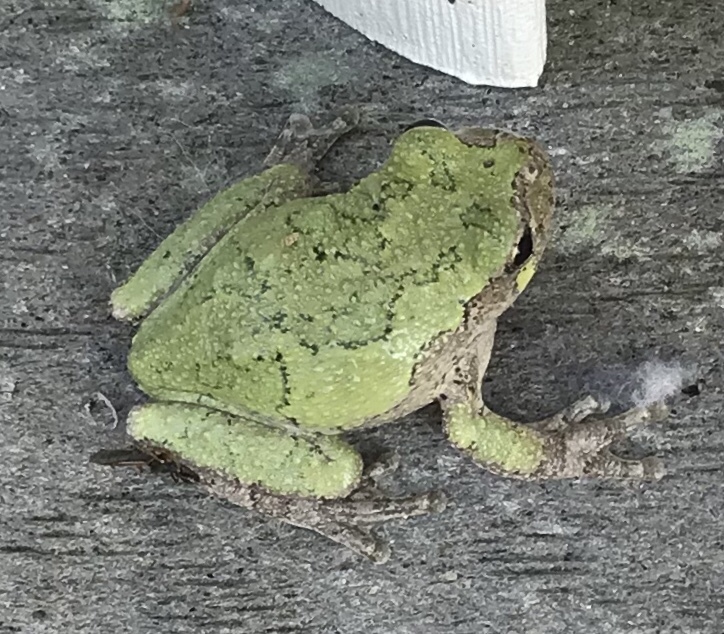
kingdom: Animalia
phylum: Chordata
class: Amphibia
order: Anura
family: Hylidae
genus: Hyla
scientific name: Hyla
